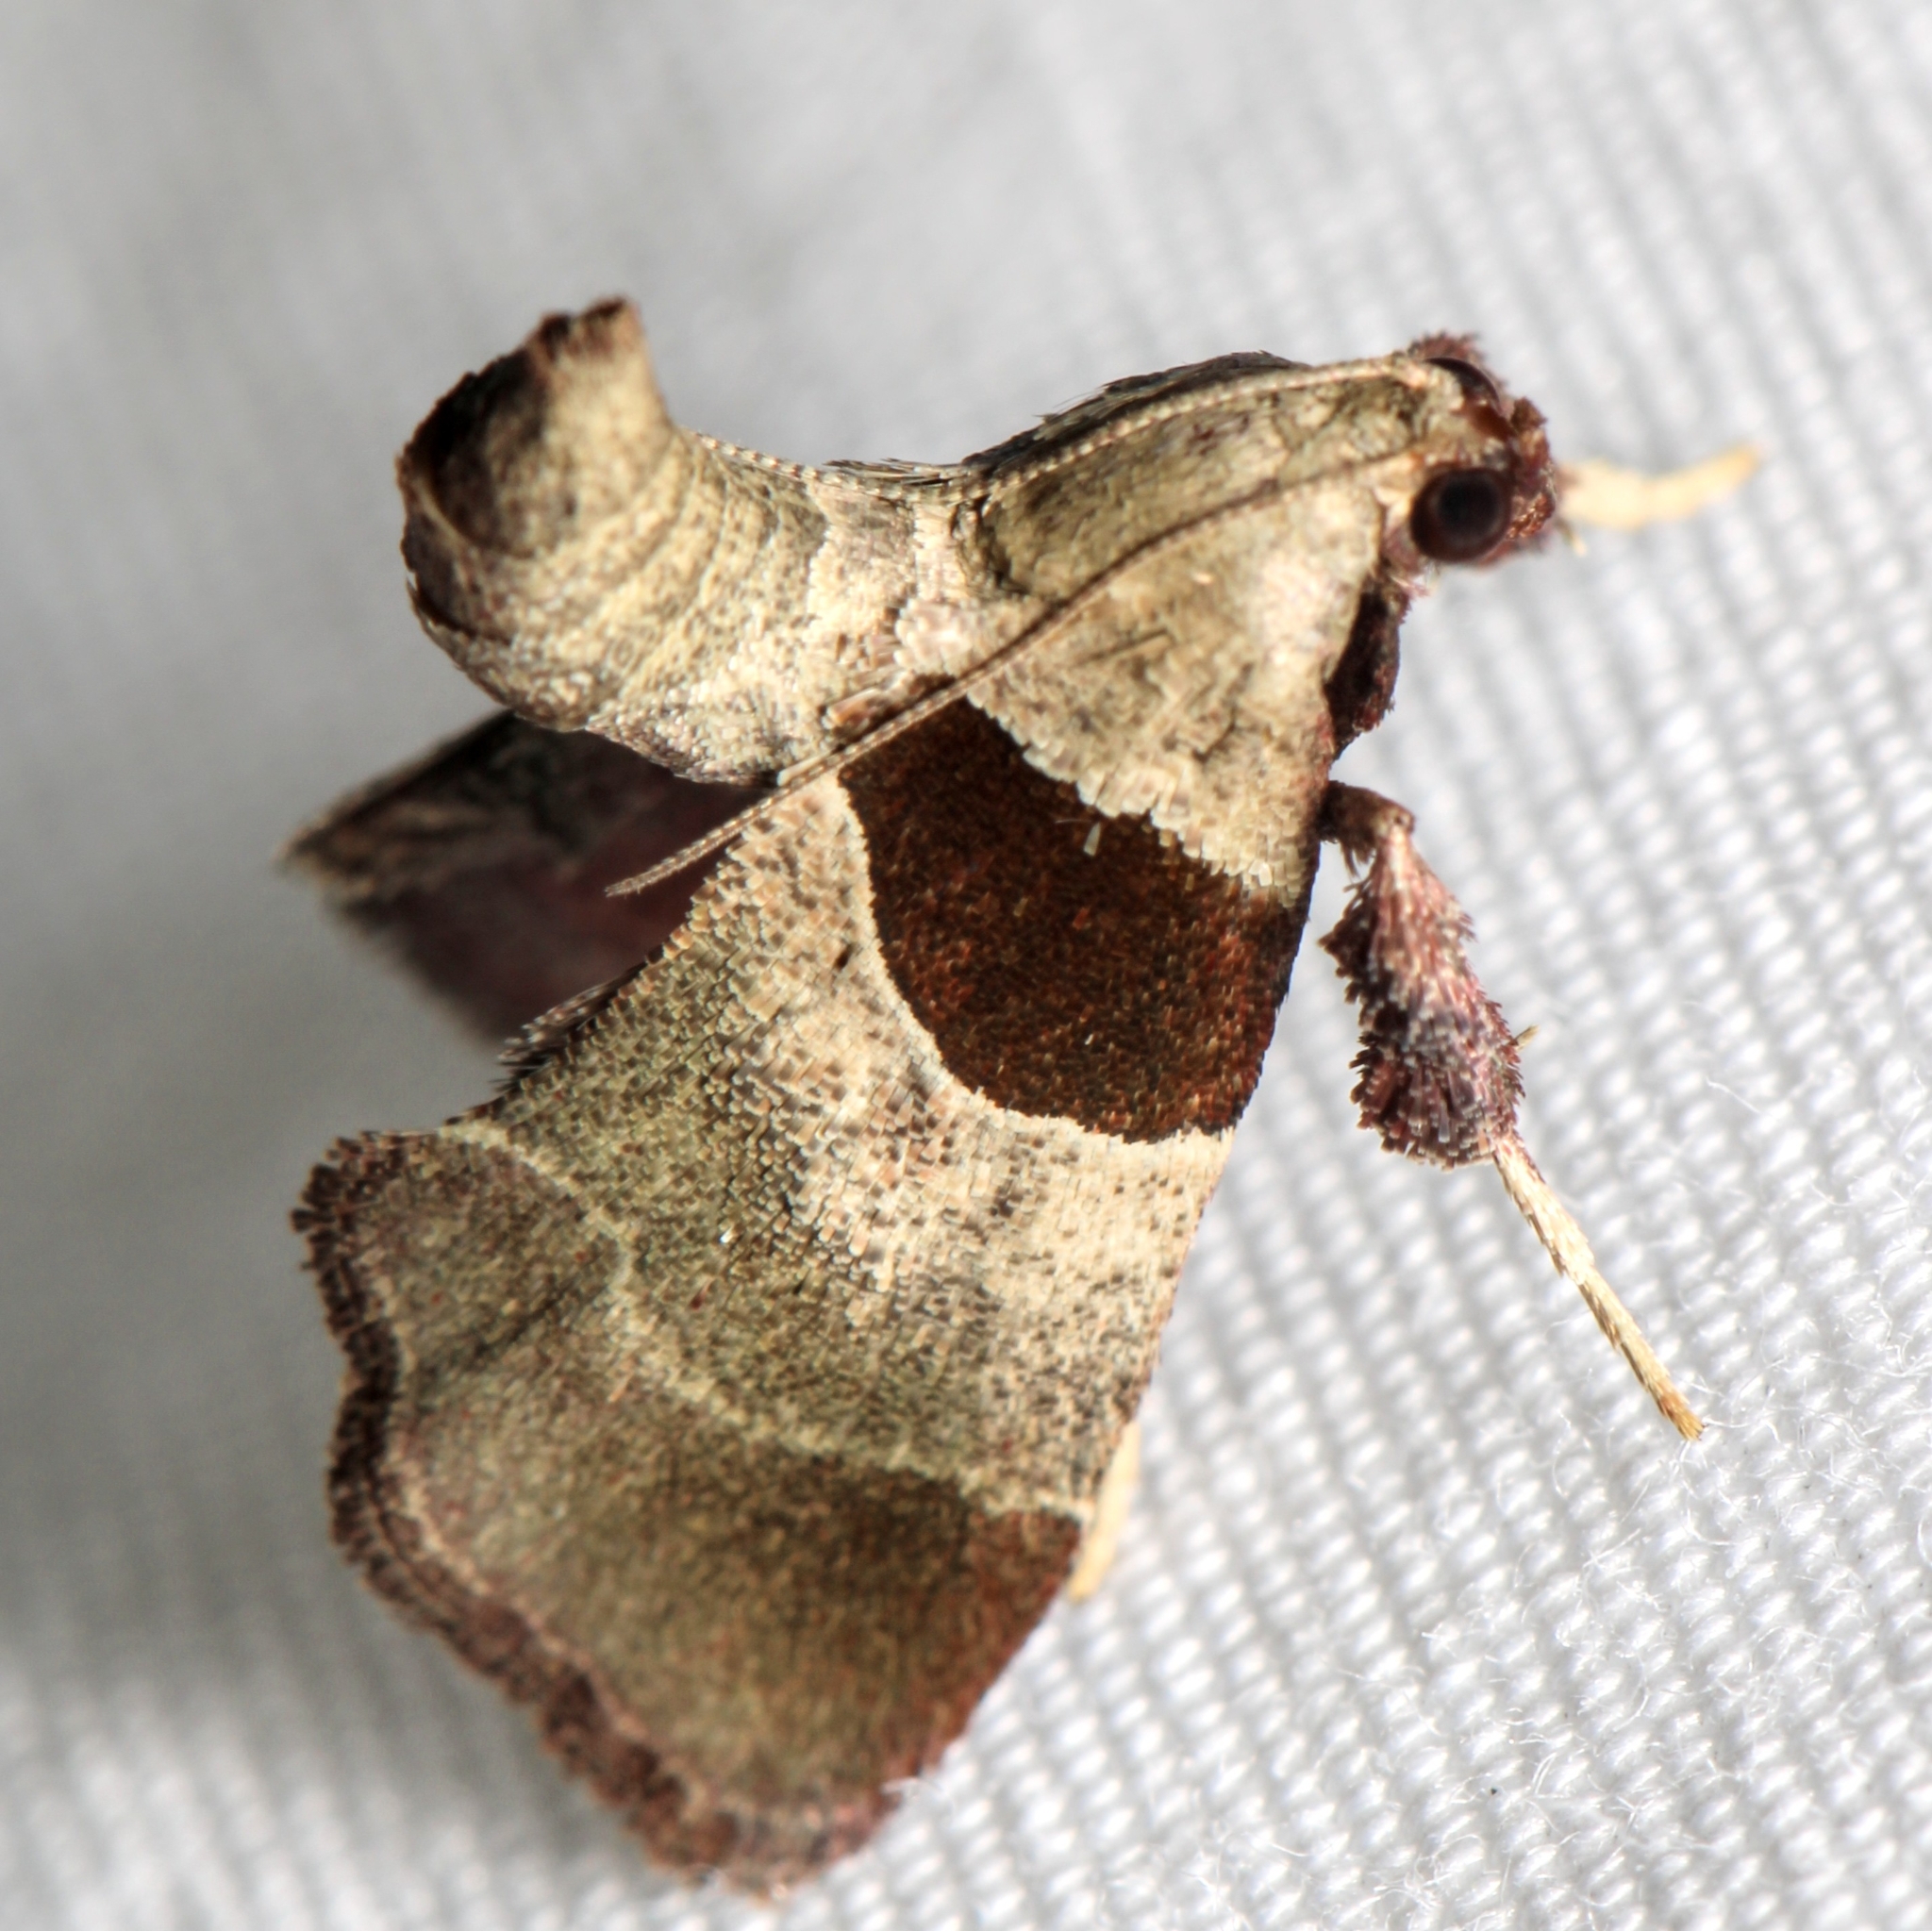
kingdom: Animalia
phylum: Arthropoda
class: Insecta
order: Lepidoptera
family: Pyralidae
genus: Tosale
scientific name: Tosale oviplagalis
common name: Dimorphic tosale moth
